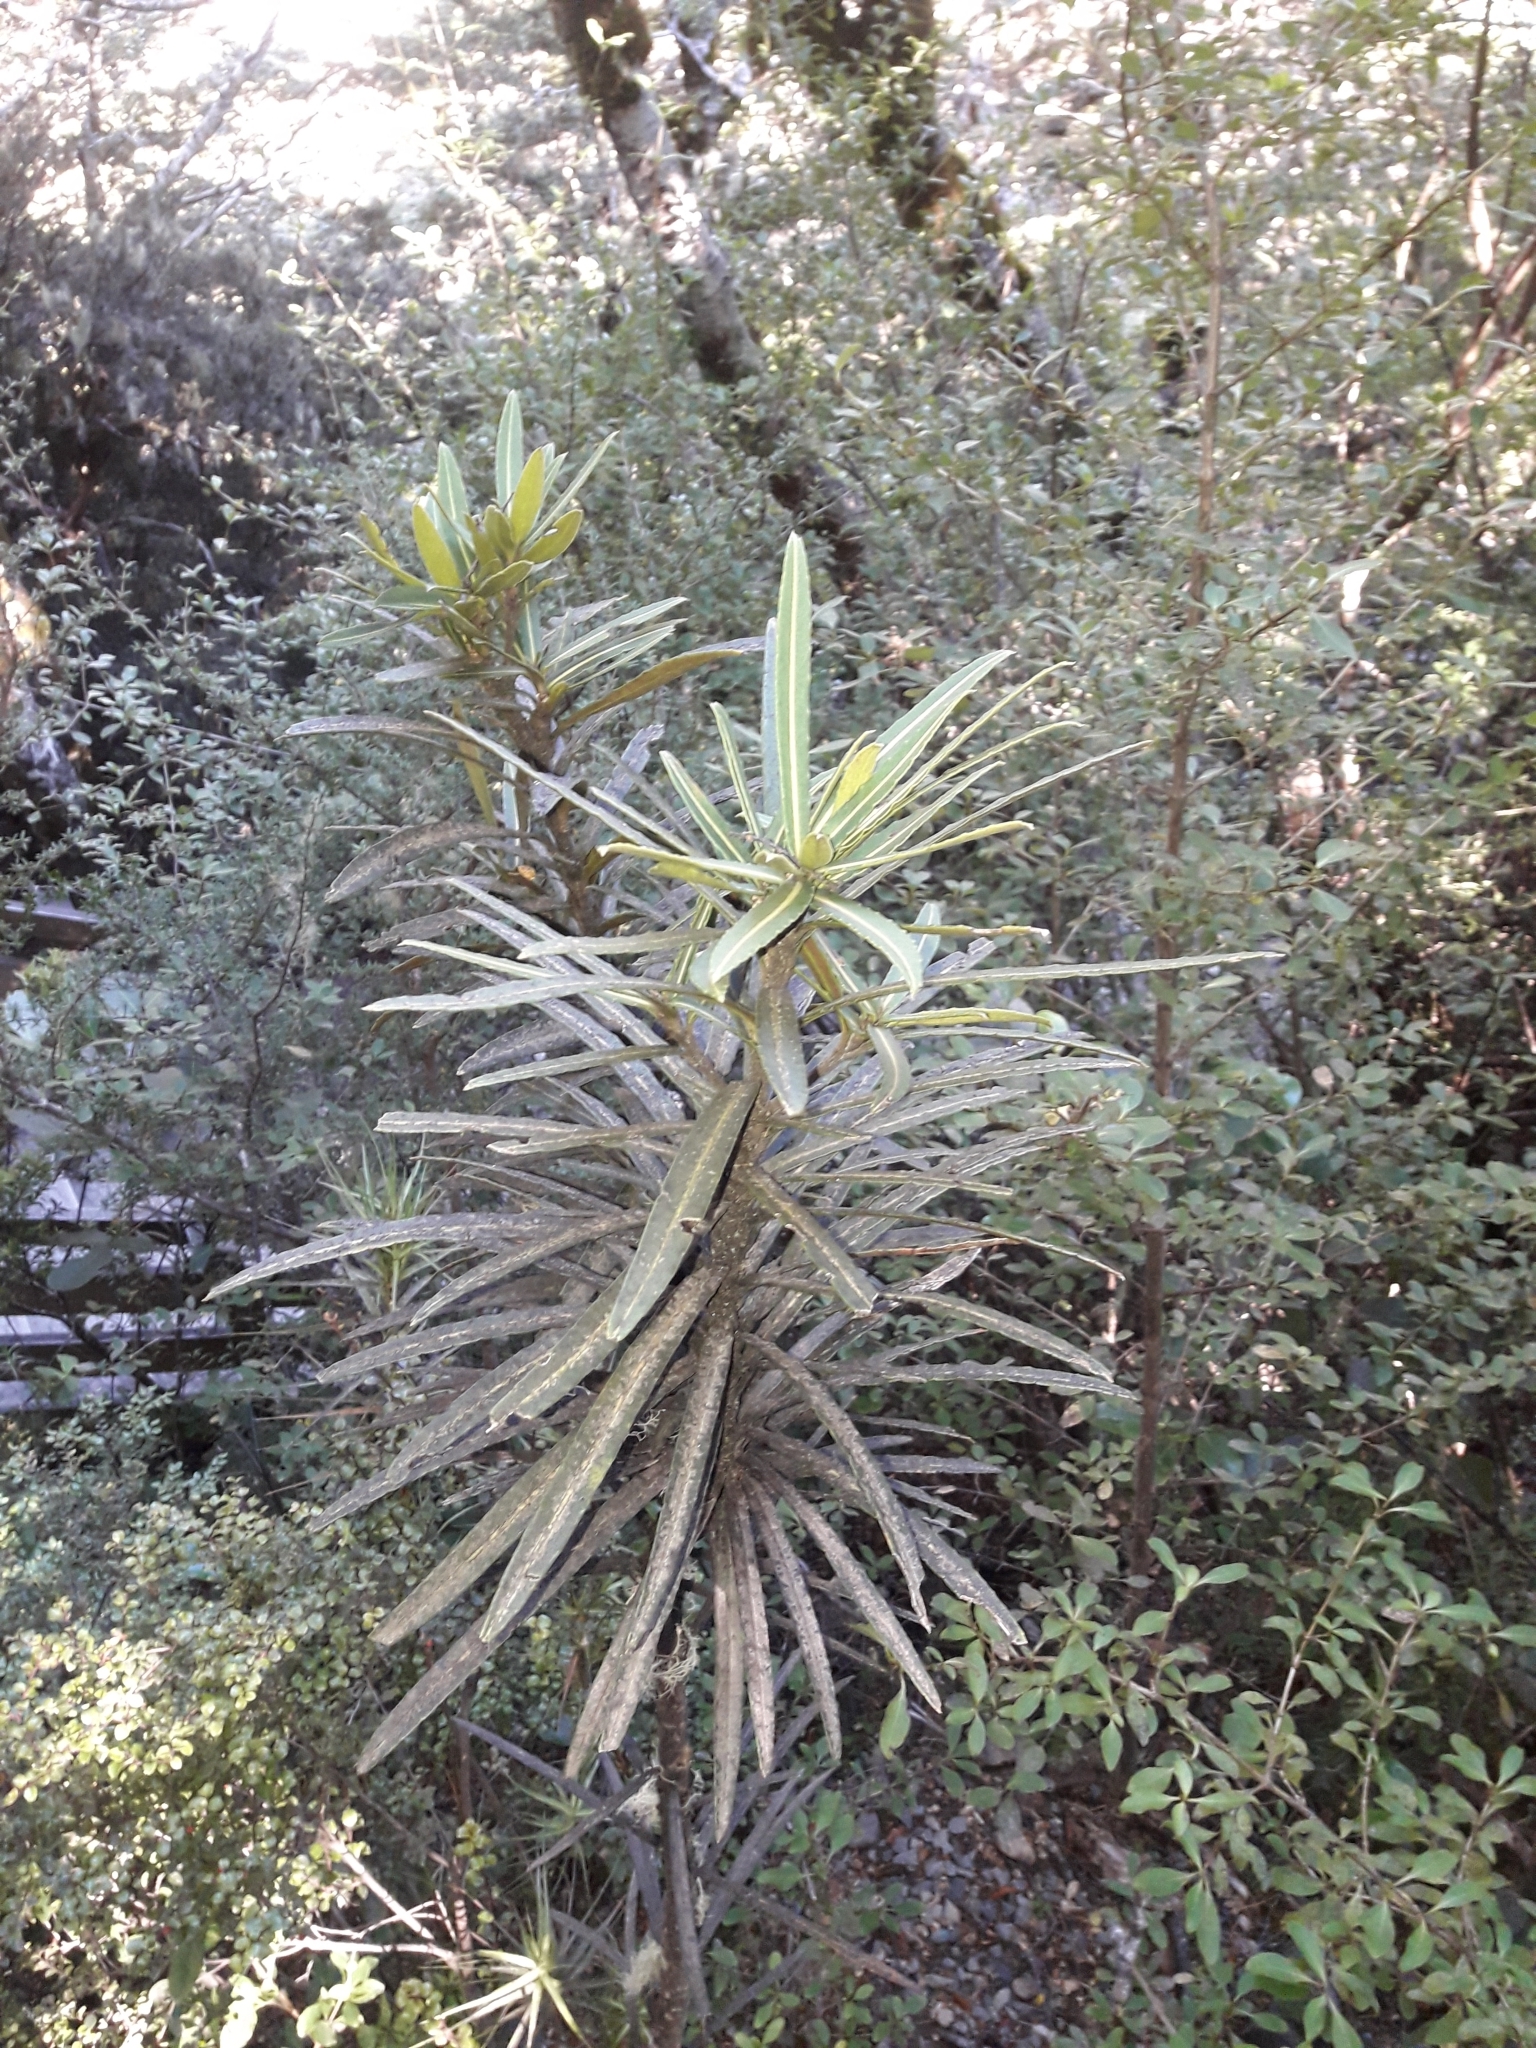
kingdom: Plantae
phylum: Tracheophyta
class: Magnoliopsida
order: Apiales
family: Araliaceae
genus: Pseudopanax
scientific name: Pseudopanax linearis
